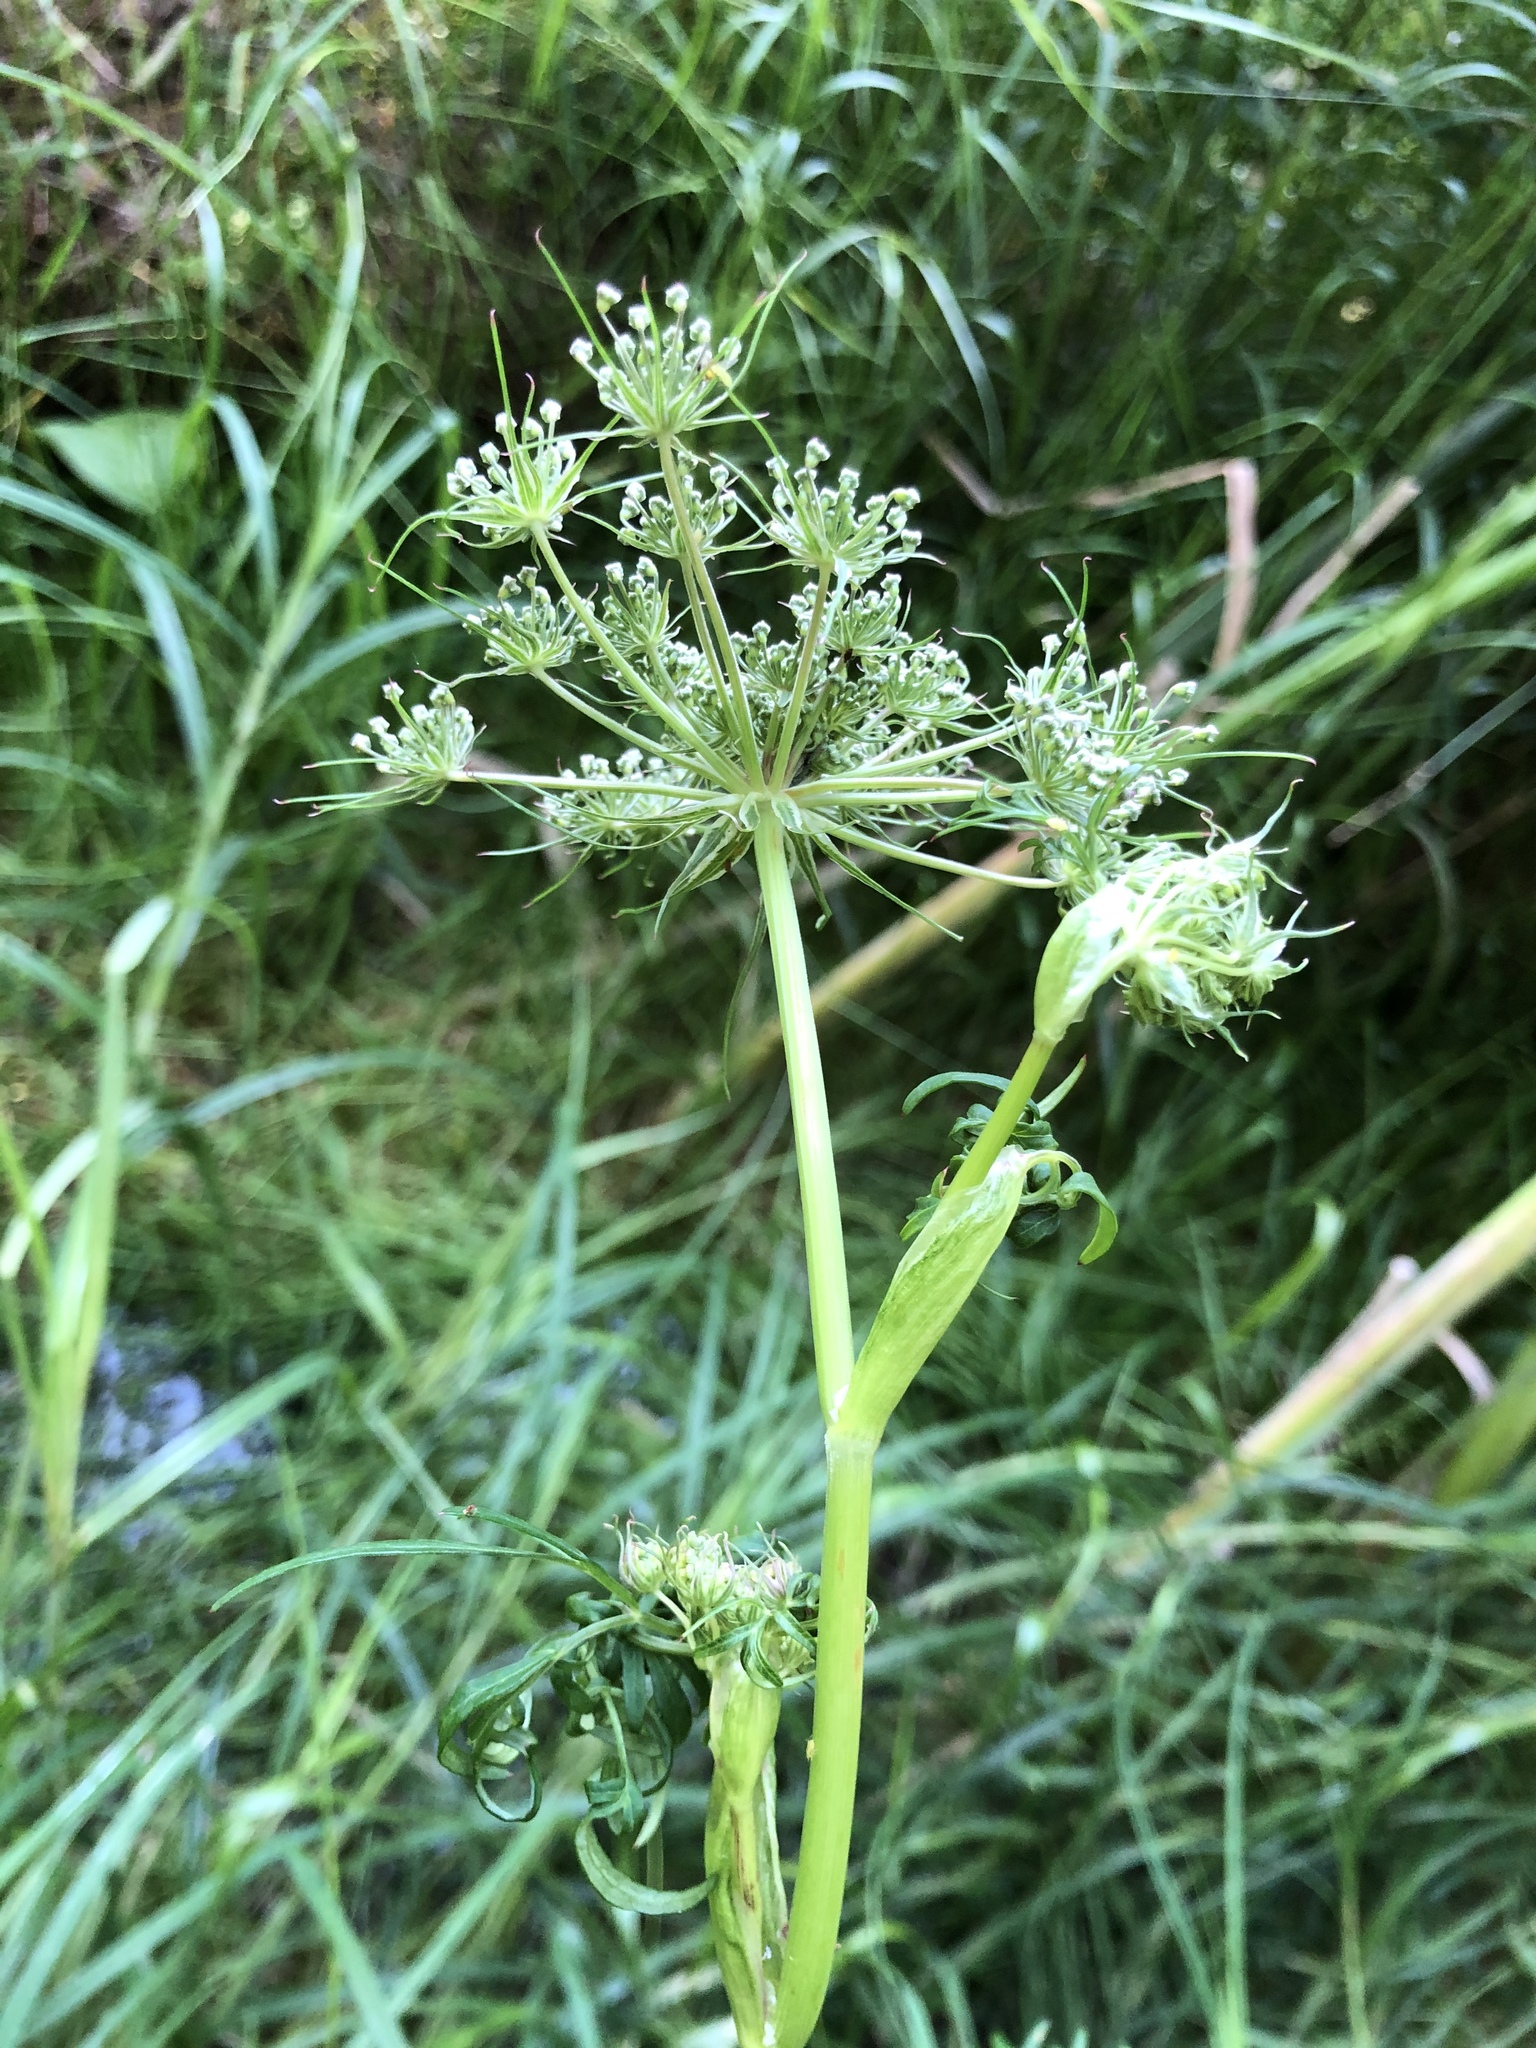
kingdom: Plantae
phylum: Tracheophyta
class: Magnoliopsida
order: Apiales
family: Apiaceae
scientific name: Apiaceae
